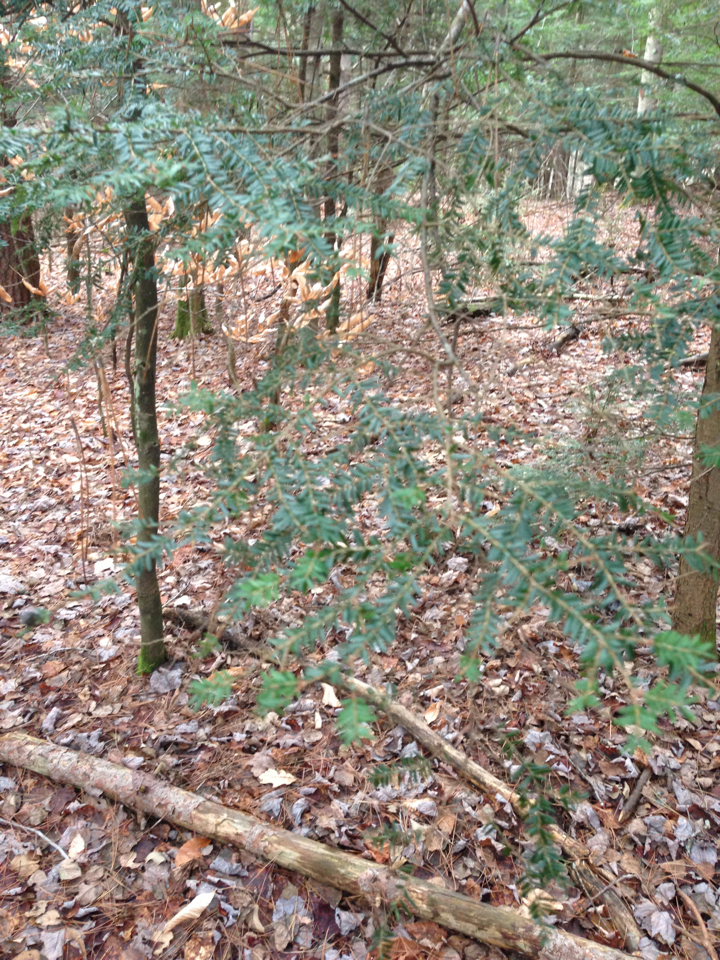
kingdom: Plantae
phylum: Tracheophyta
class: Pinopsida
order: Pinales
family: Pinaceae
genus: Tsuga
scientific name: Tsuga canadensis
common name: Eastern hemlock
